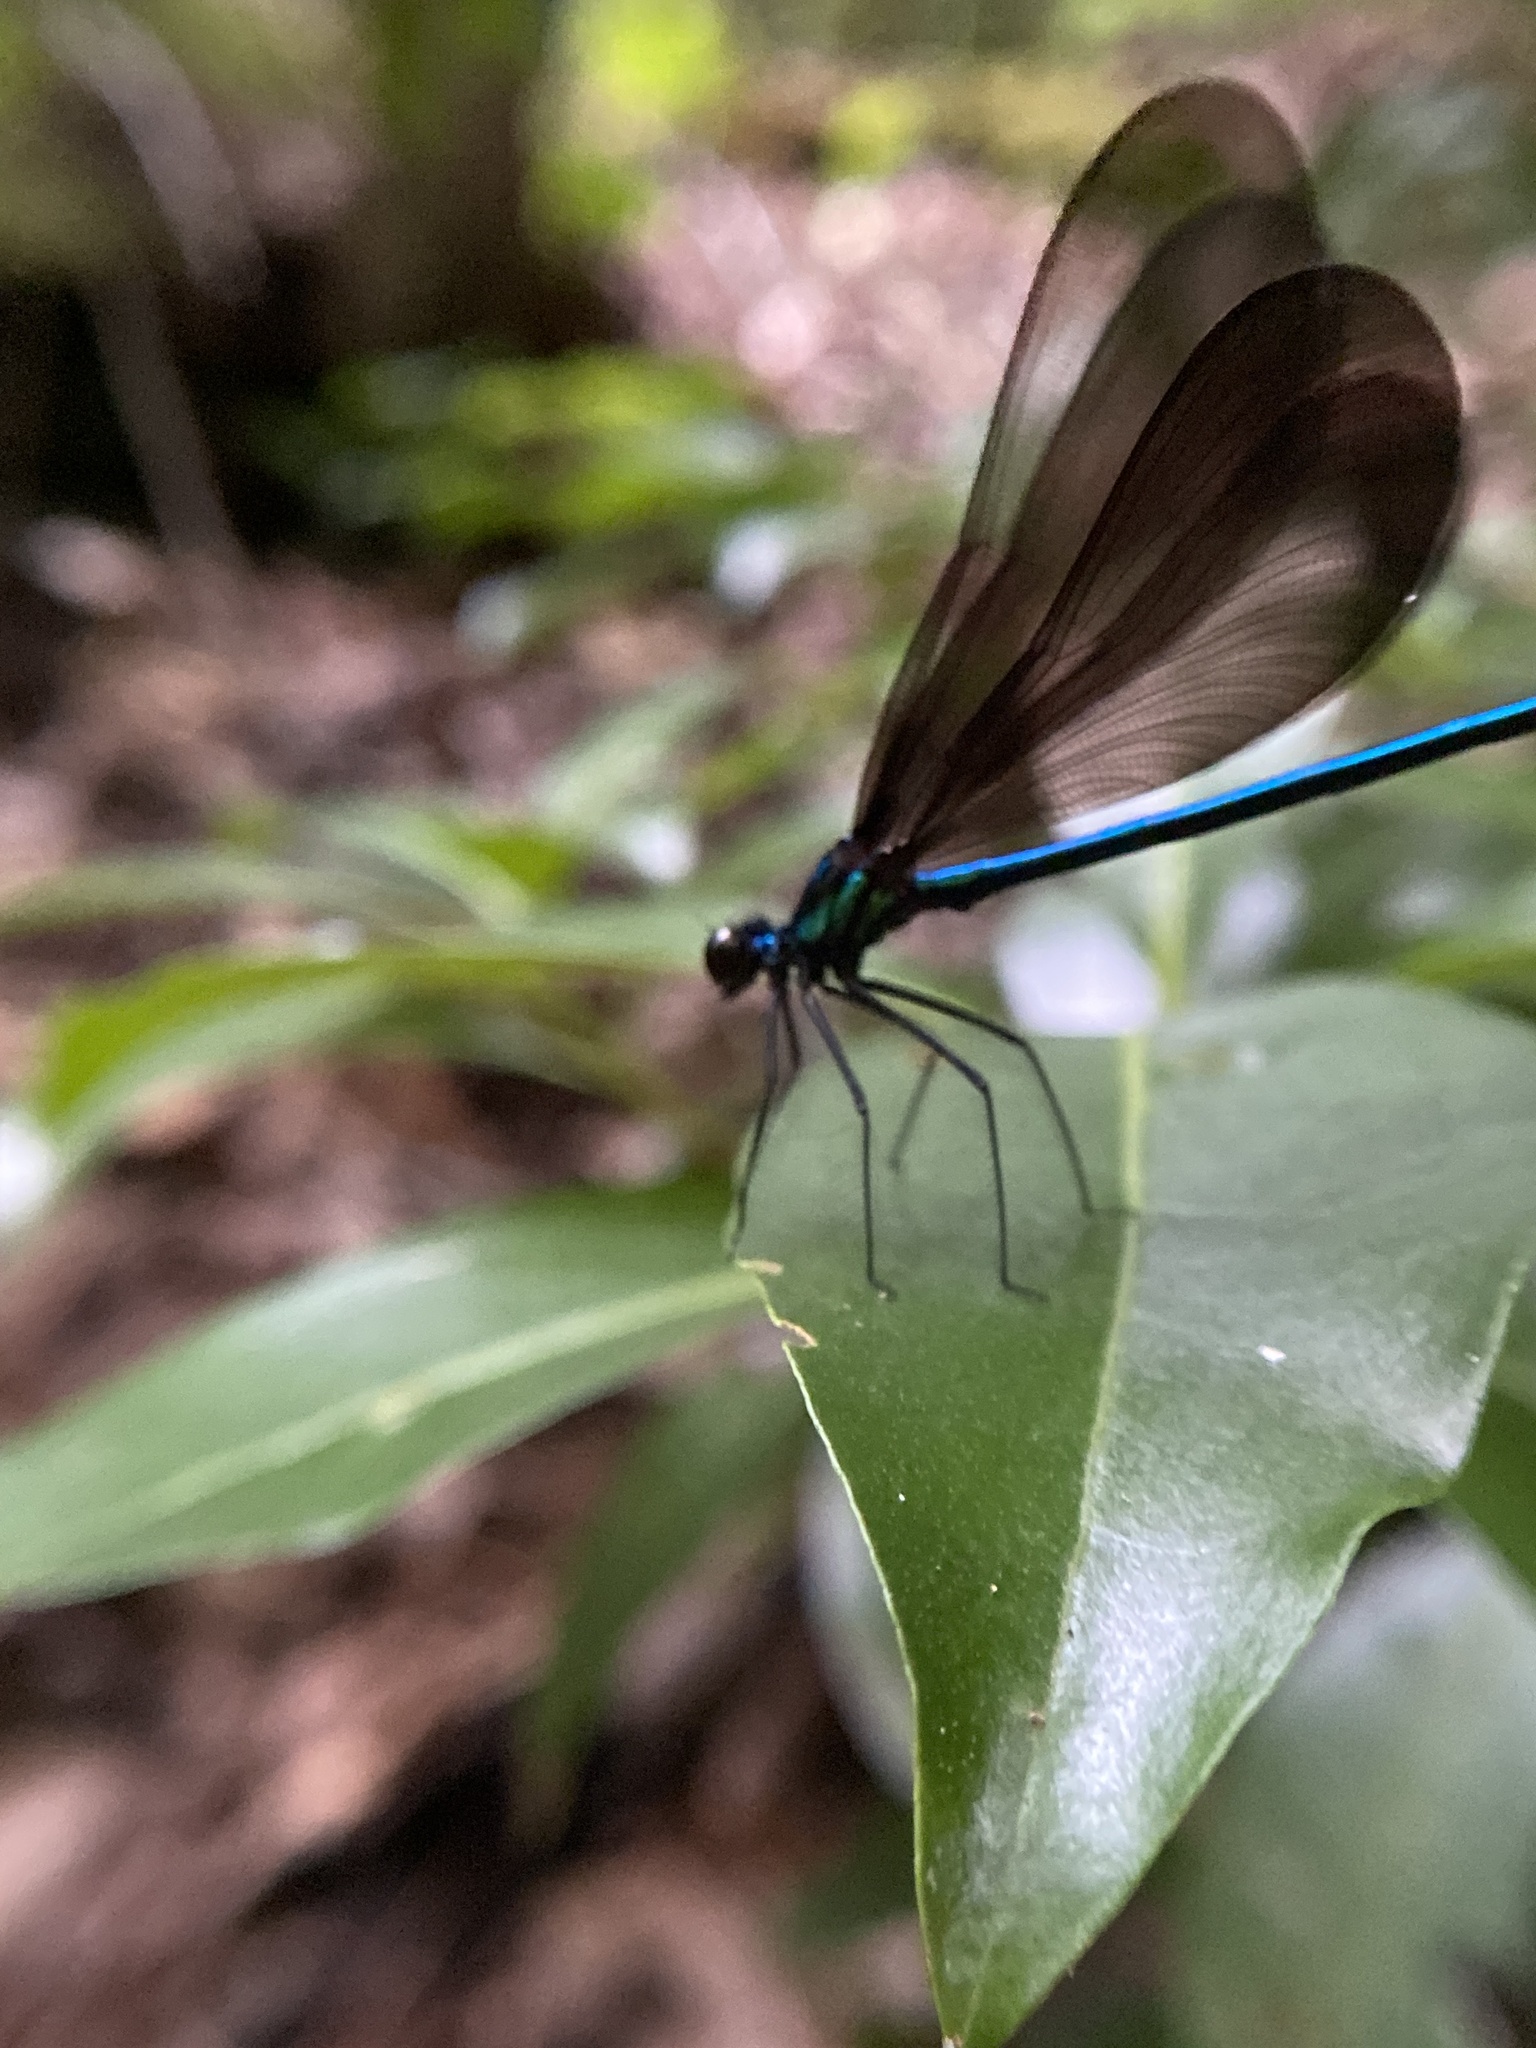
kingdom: Animalia
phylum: Arthropoda
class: Insecta
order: Odonata
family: Calopterygidae
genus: Calopteryx
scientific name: Calopteryx maculata
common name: Ebony jewelwing
